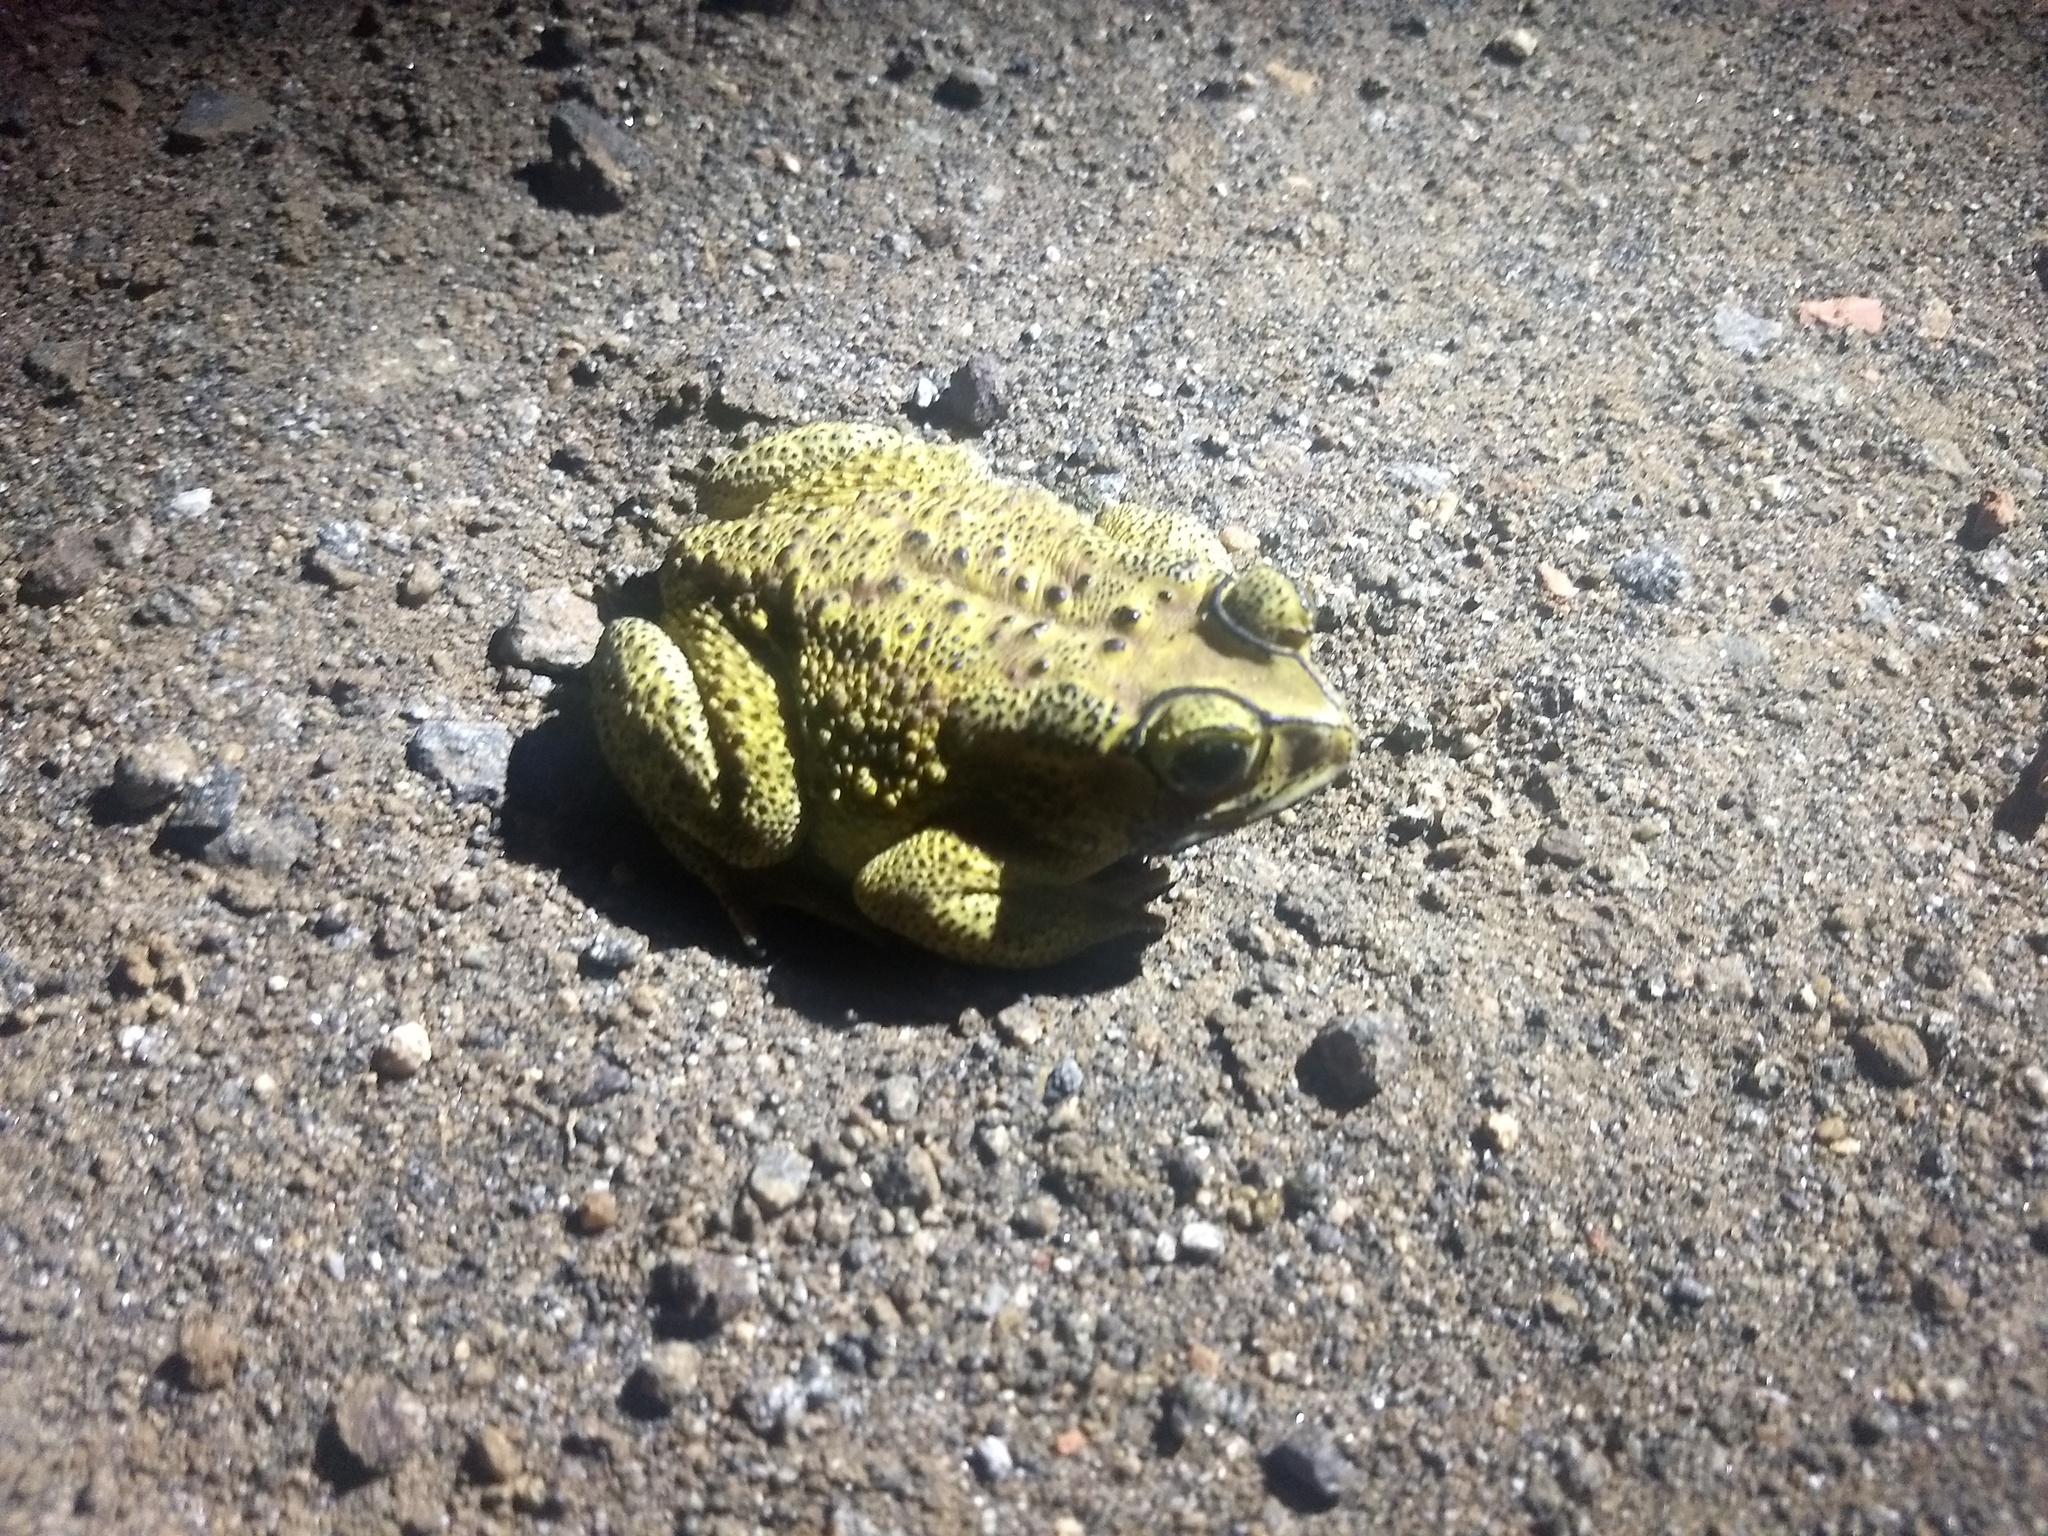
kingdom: Animalia
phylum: Chordata
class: Amphibia
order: Anura
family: Bufonidae
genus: Duttaphrynus
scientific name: Duttaphrynus melanostictus
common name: Common sunda toad
